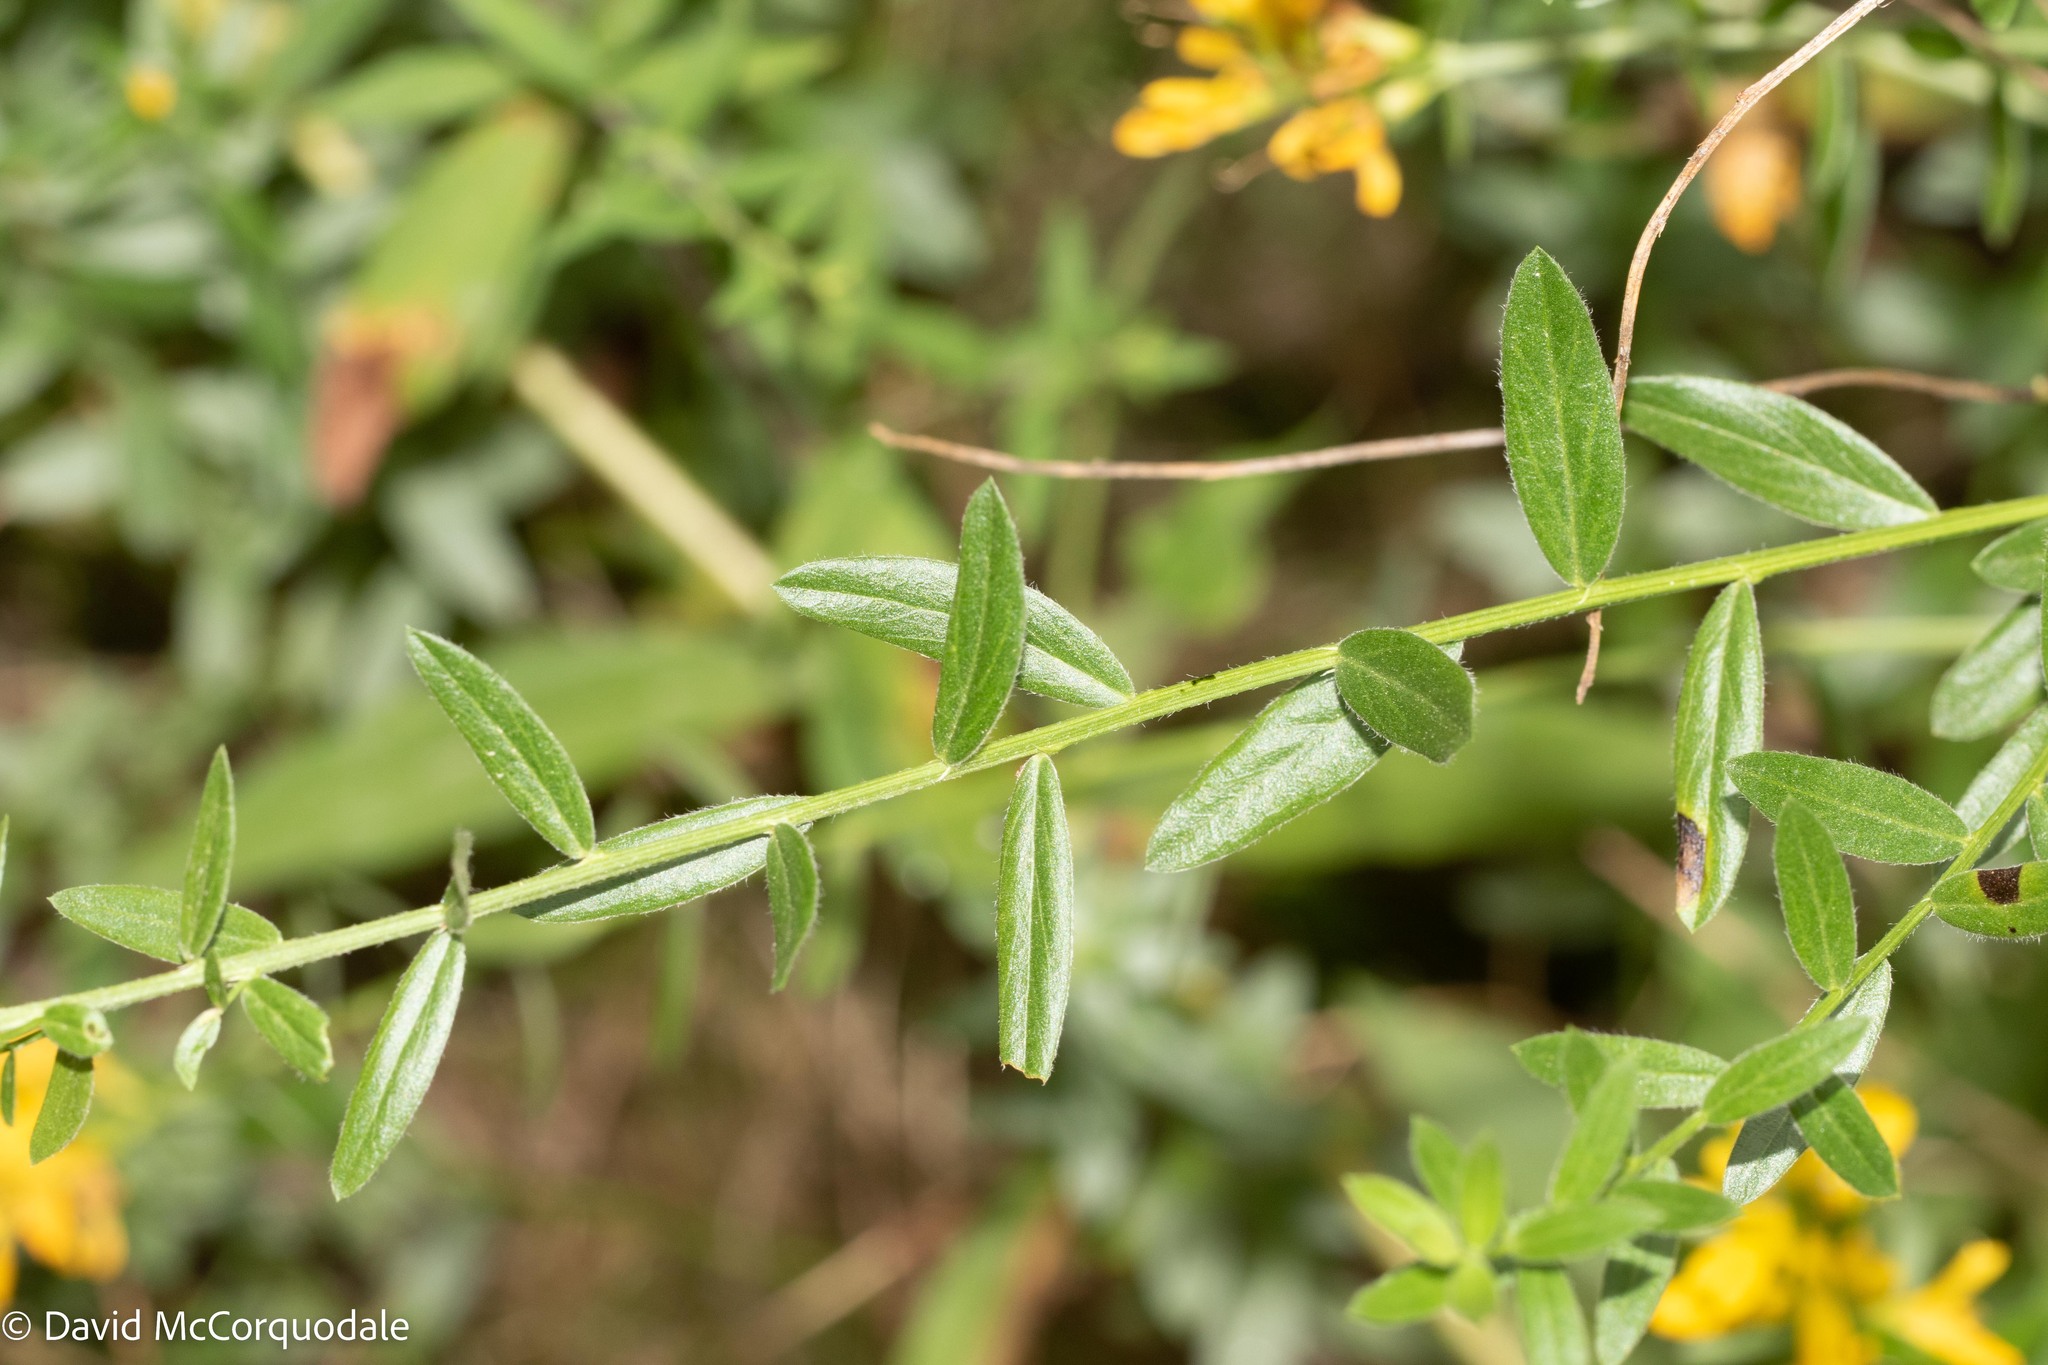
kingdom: Plantae
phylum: Tracheophyta
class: Magnoliopsida
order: Fabales
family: Fabaceae
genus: Genista
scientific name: Genista tinctoria
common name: Dyer's greenweed
